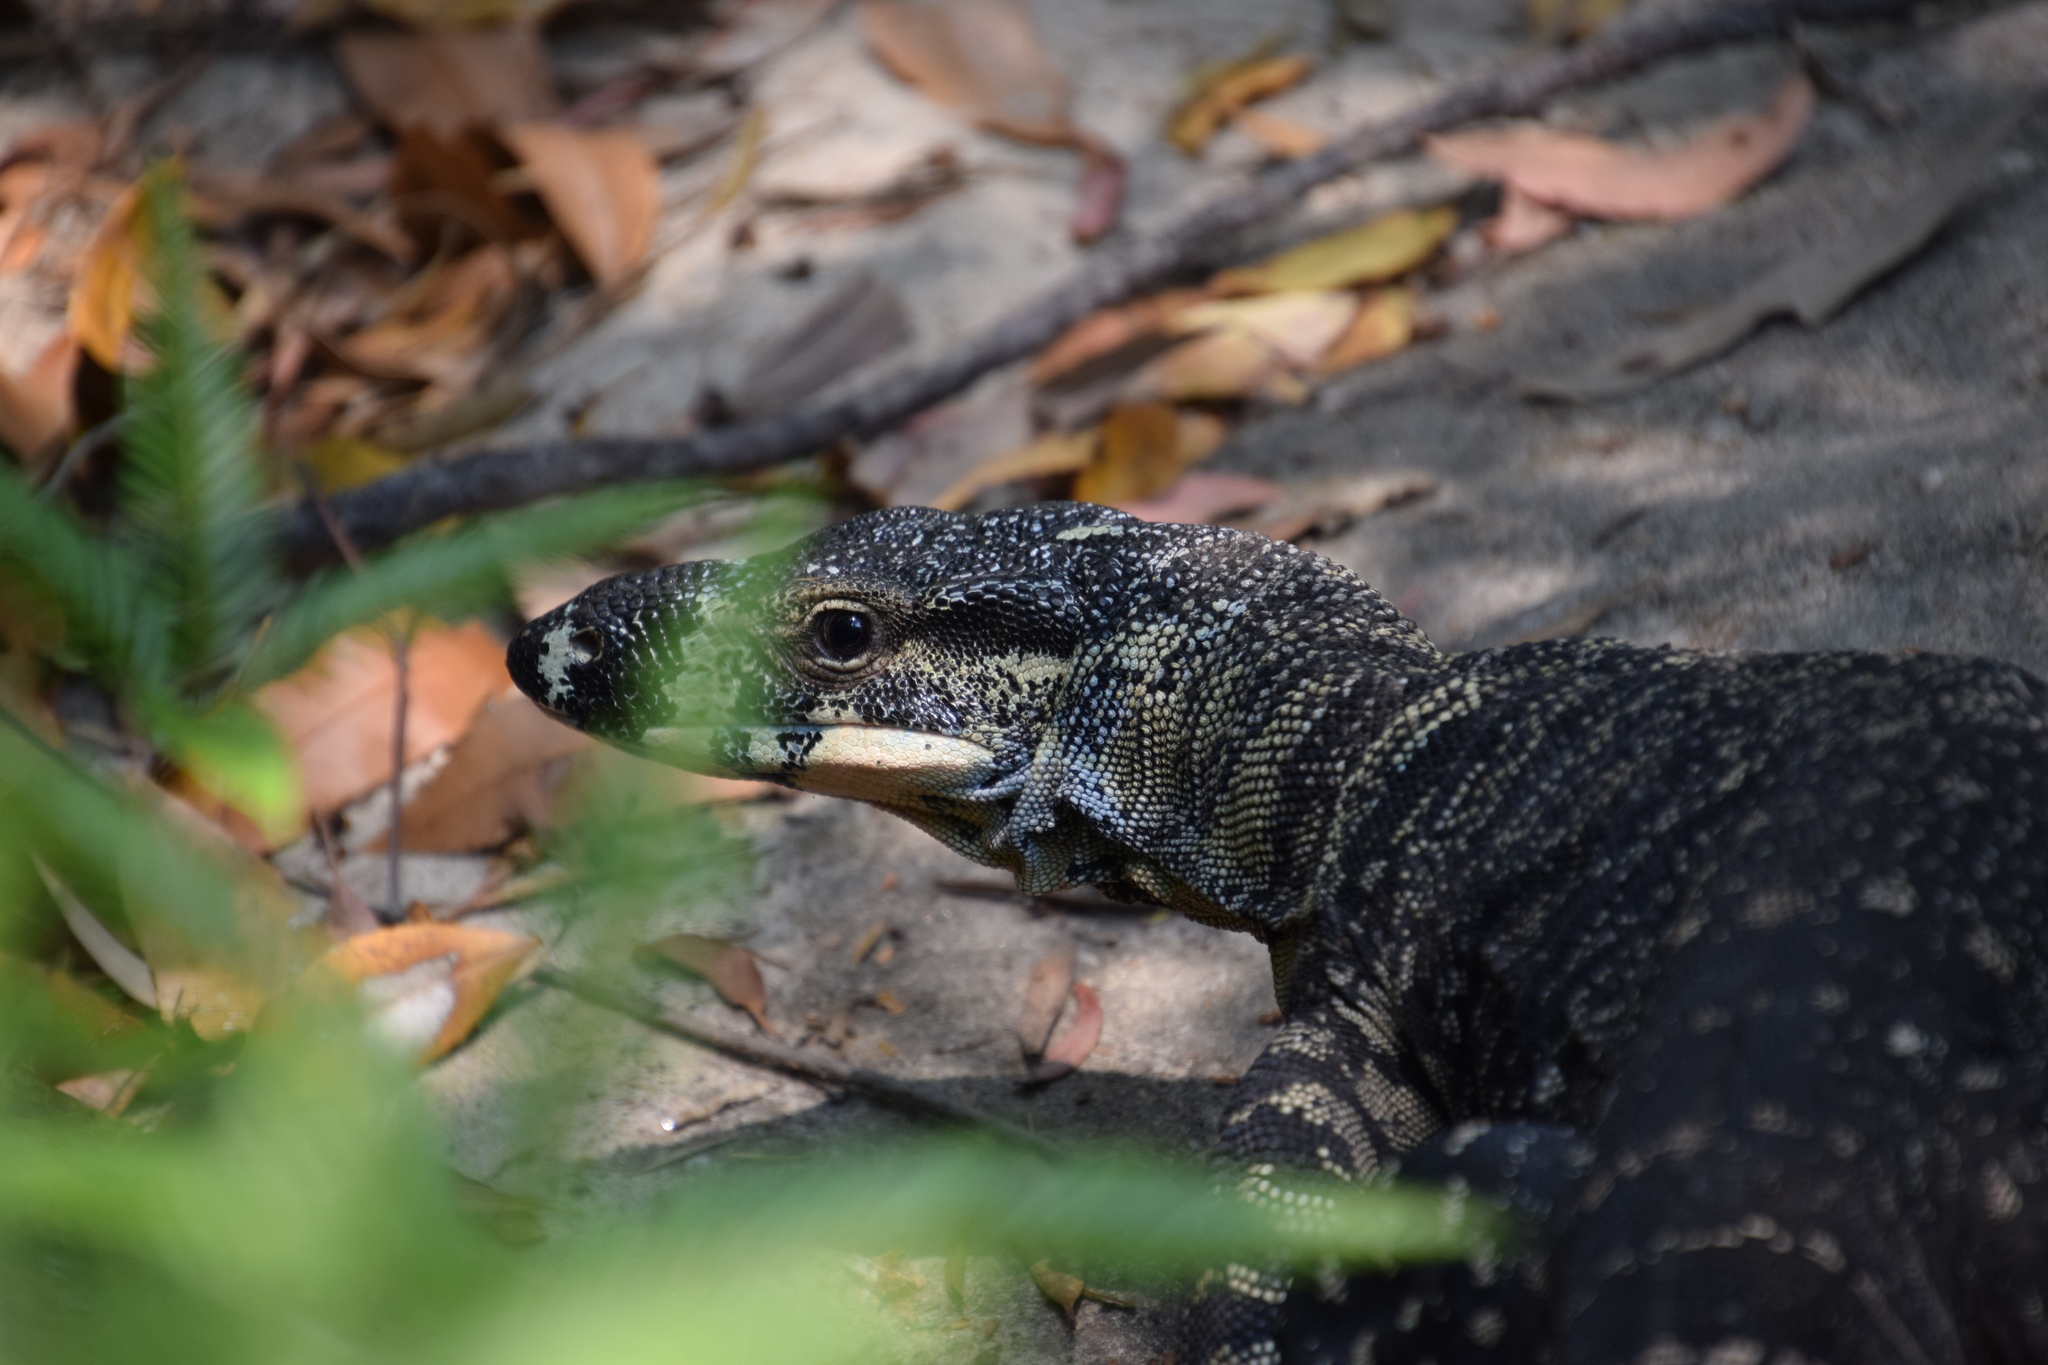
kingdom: Animalia
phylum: Chordata
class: Squamata
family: Varanidae
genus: Varanus
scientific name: Varanus varius
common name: Lace monitor
